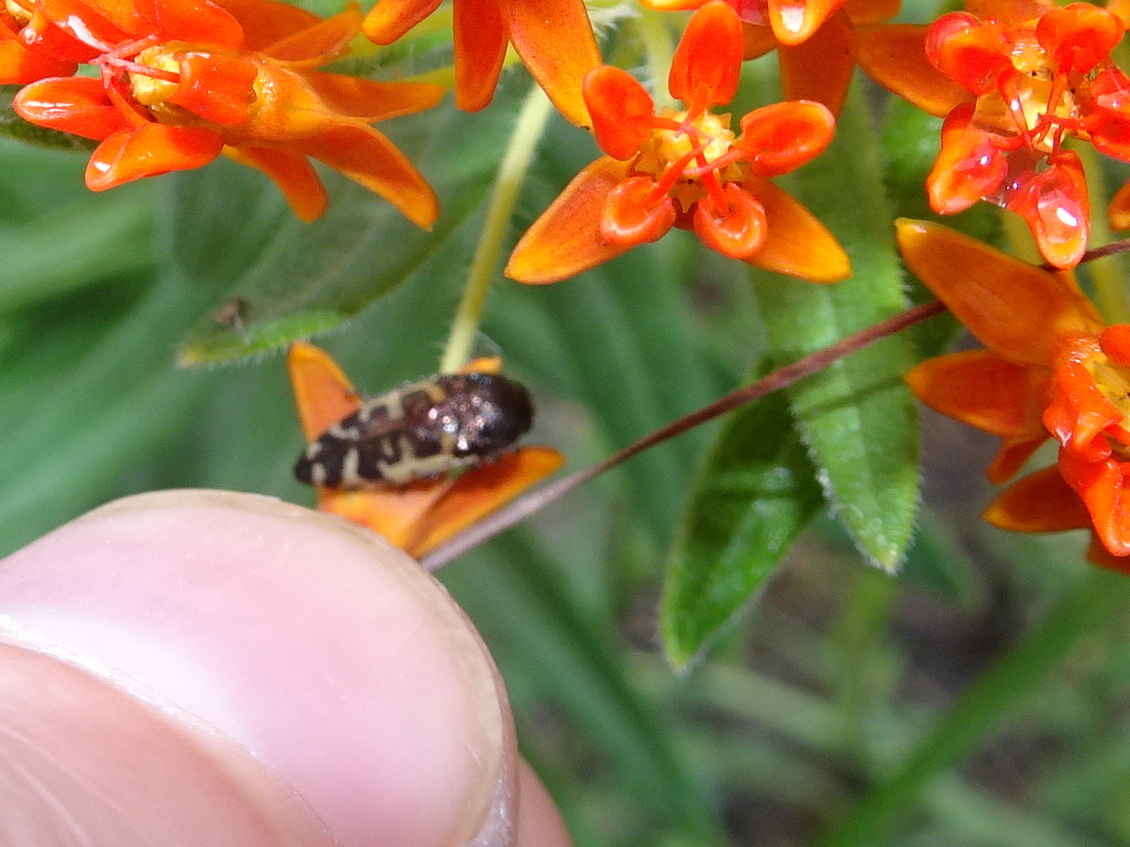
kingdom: Animalia
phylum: Arthropoda
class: Insecta
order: Coleoptera
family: Buprestidae
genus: Acmaeodera
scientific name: Acmaeodera pulchella
